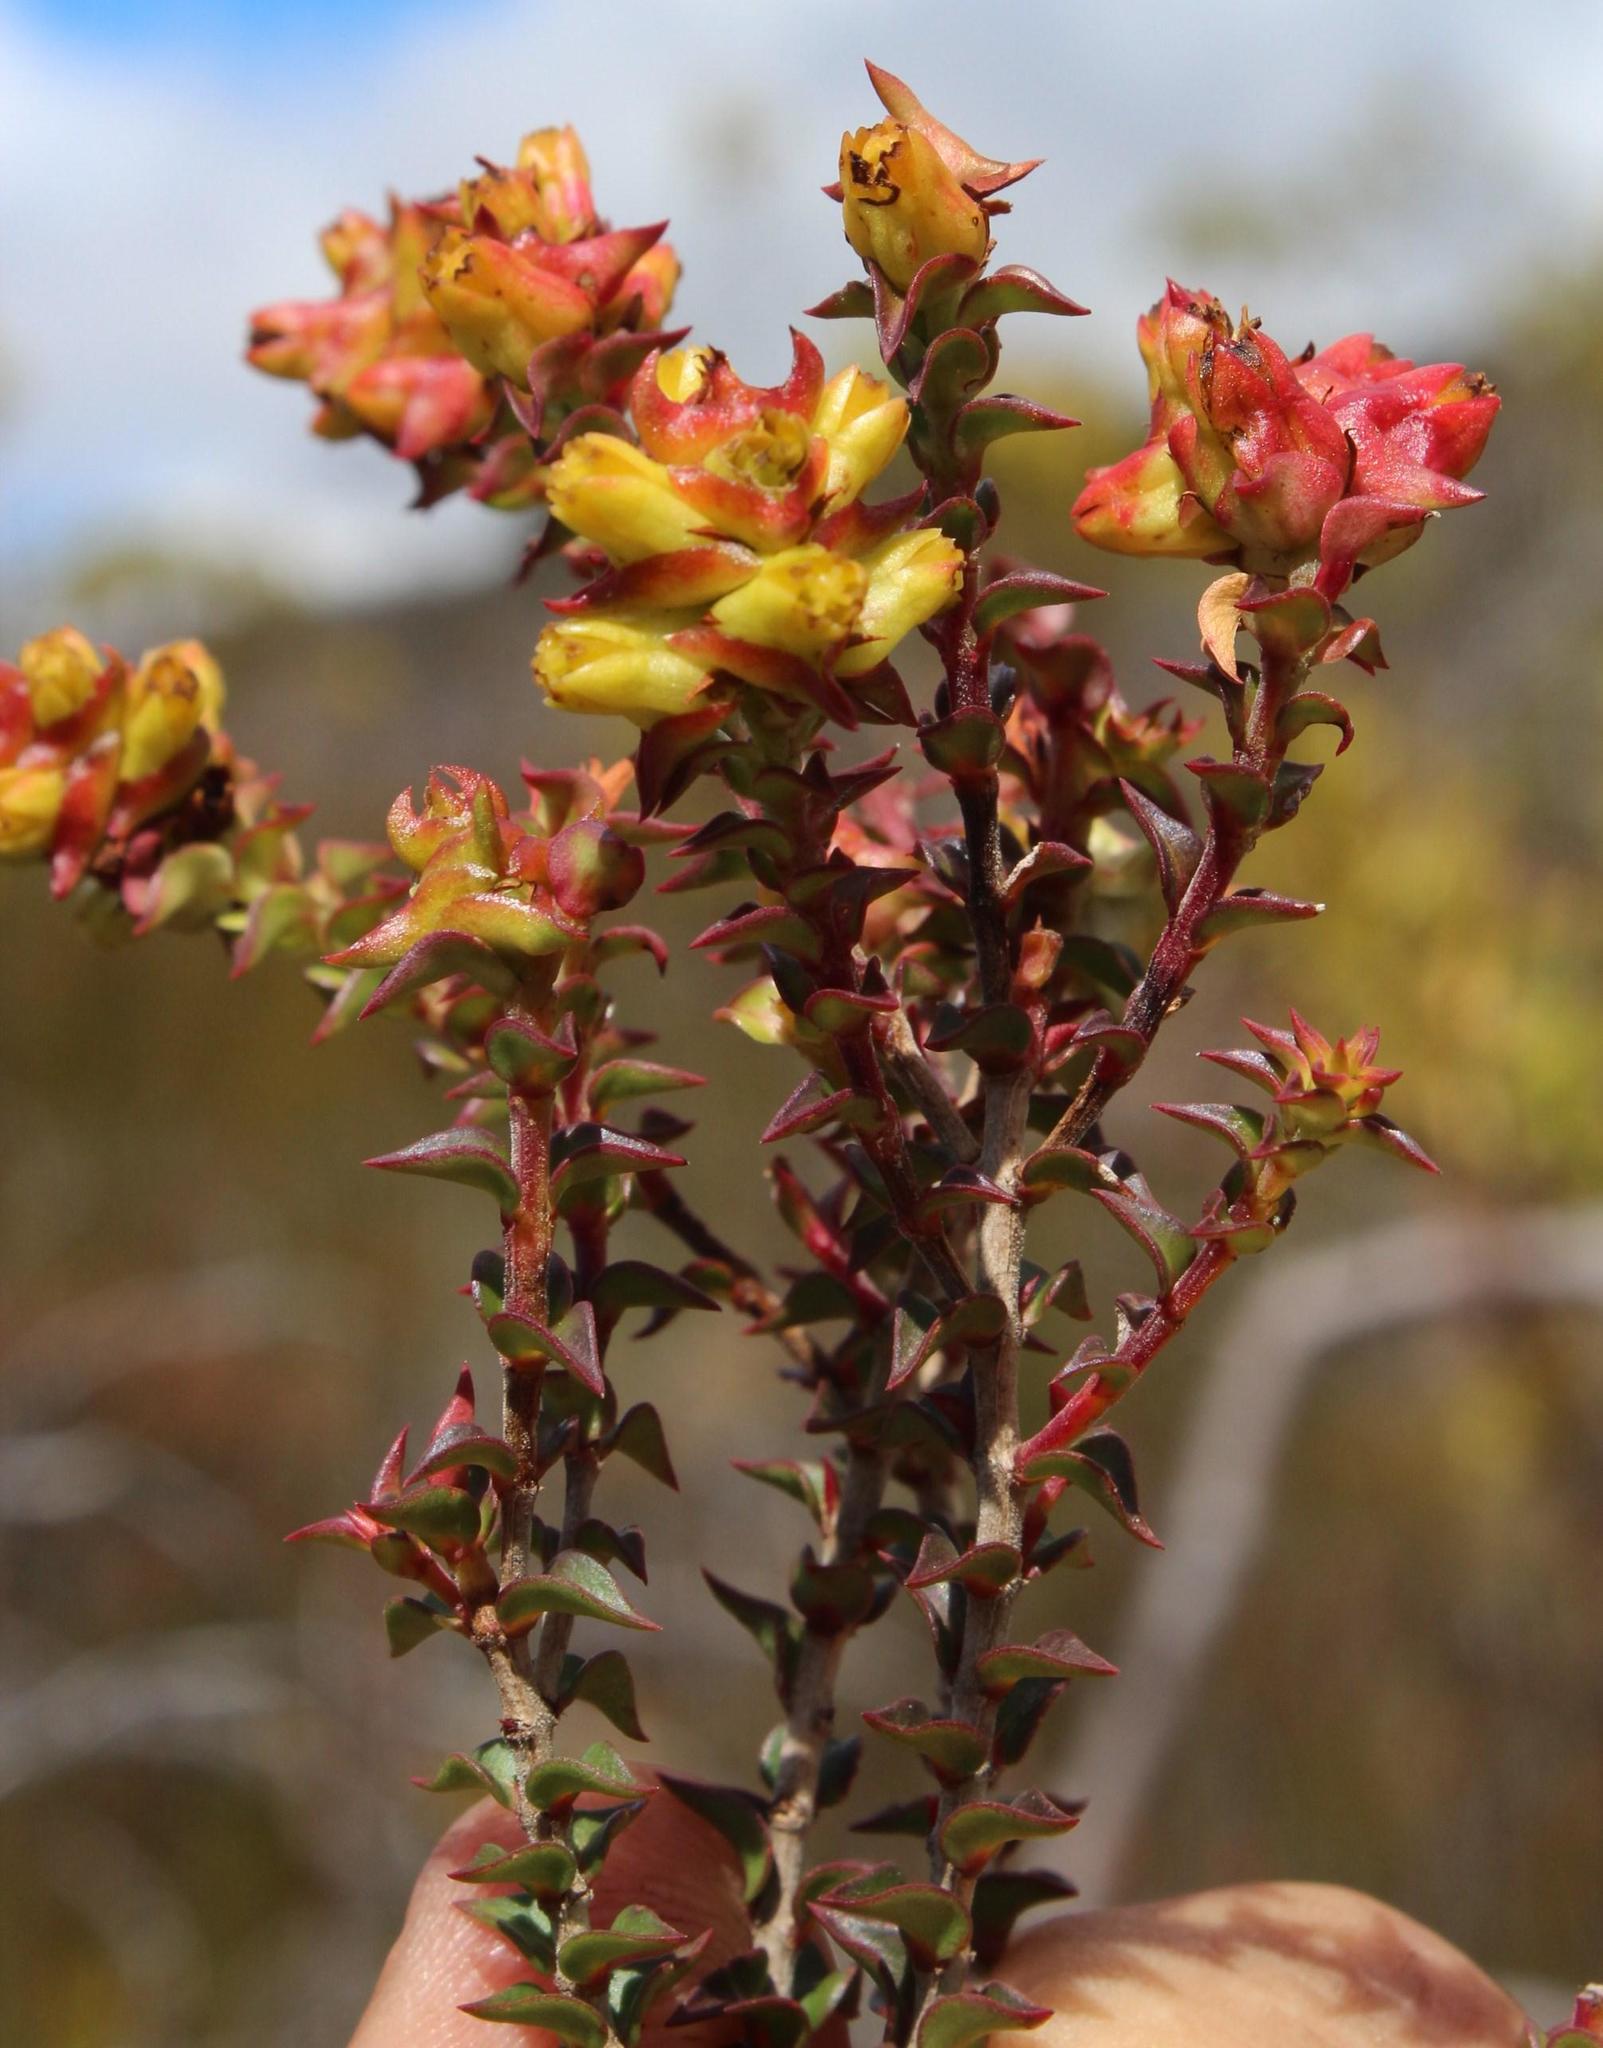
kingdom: Plantae
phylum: Tracheophyta
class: Magnoliopsida
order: Myrtales
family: Penaeaceae
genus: Penaea
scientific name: Penaea mucronata
